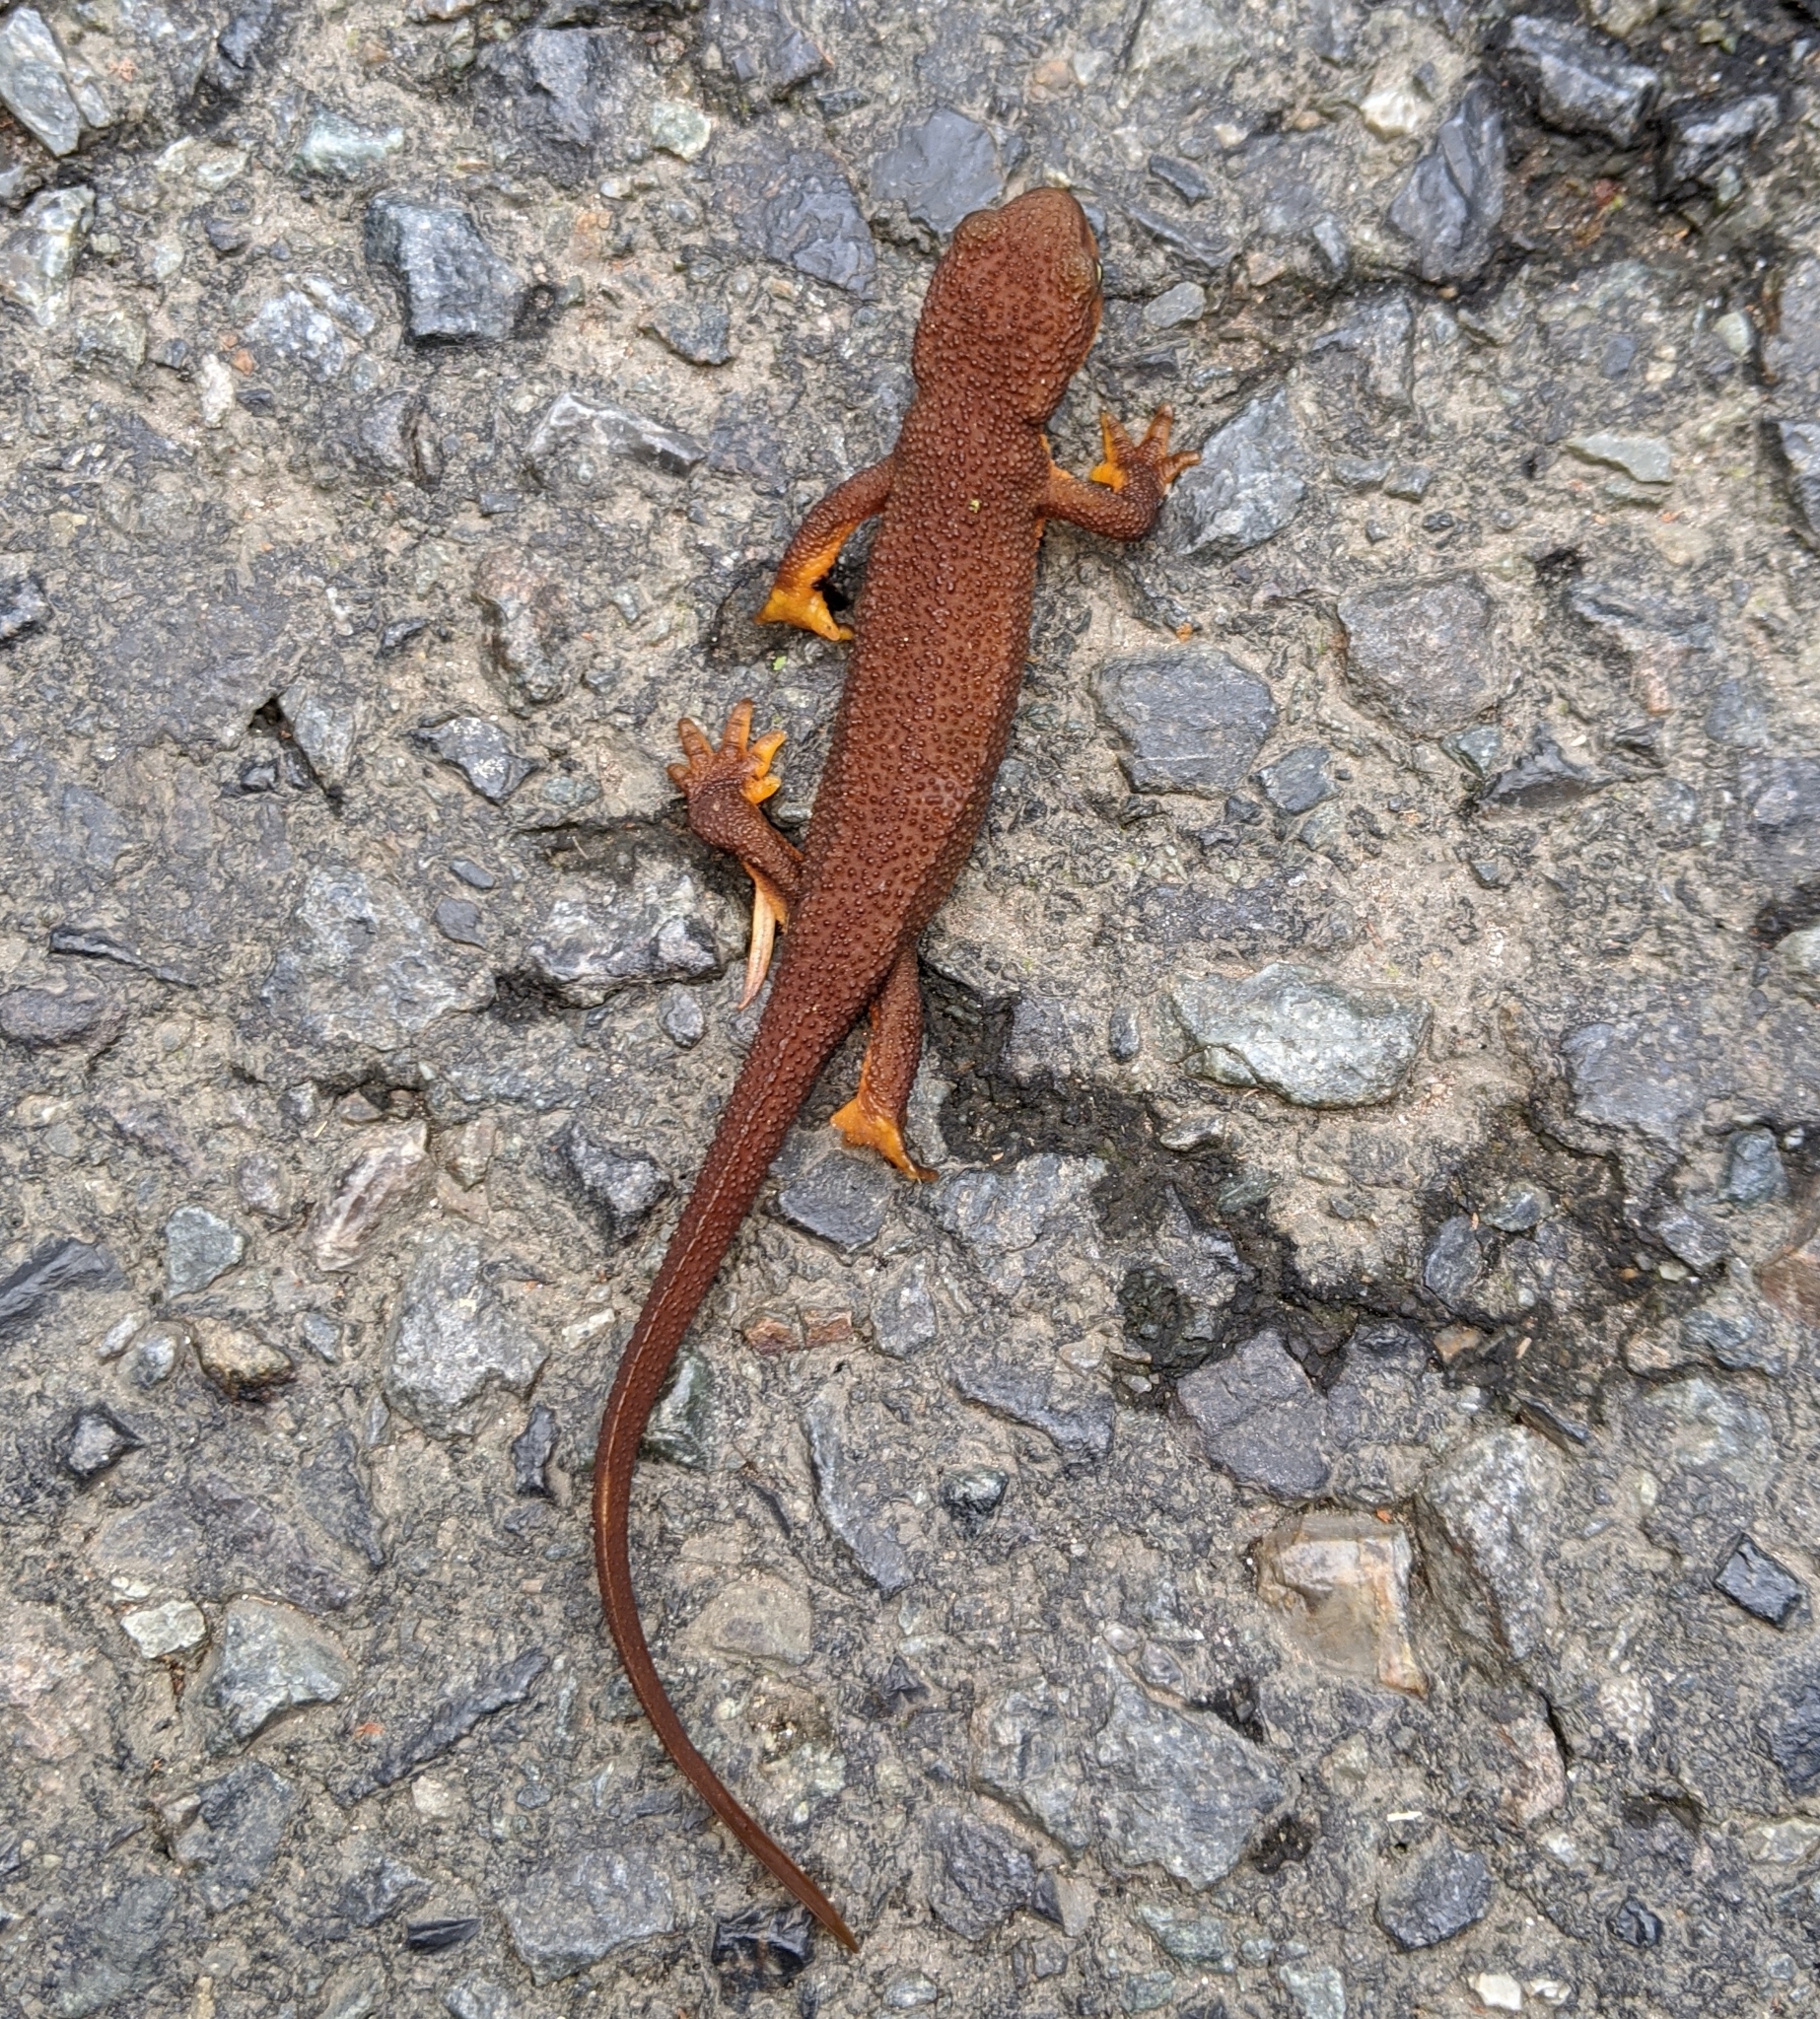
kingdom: Animalia
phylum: Chordata
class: Amphibia
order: Caudata
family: Salamandridae
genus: Taricha
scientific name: Taricha granulosa
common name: Roughskin newt
